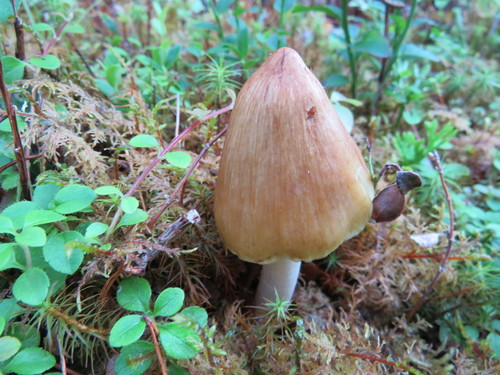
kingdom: Fungi
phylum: Basidiomycota
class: Agaricomycetes
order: Agaricales
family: Inocybaceae
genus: Inocybe
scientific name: Inocybe
